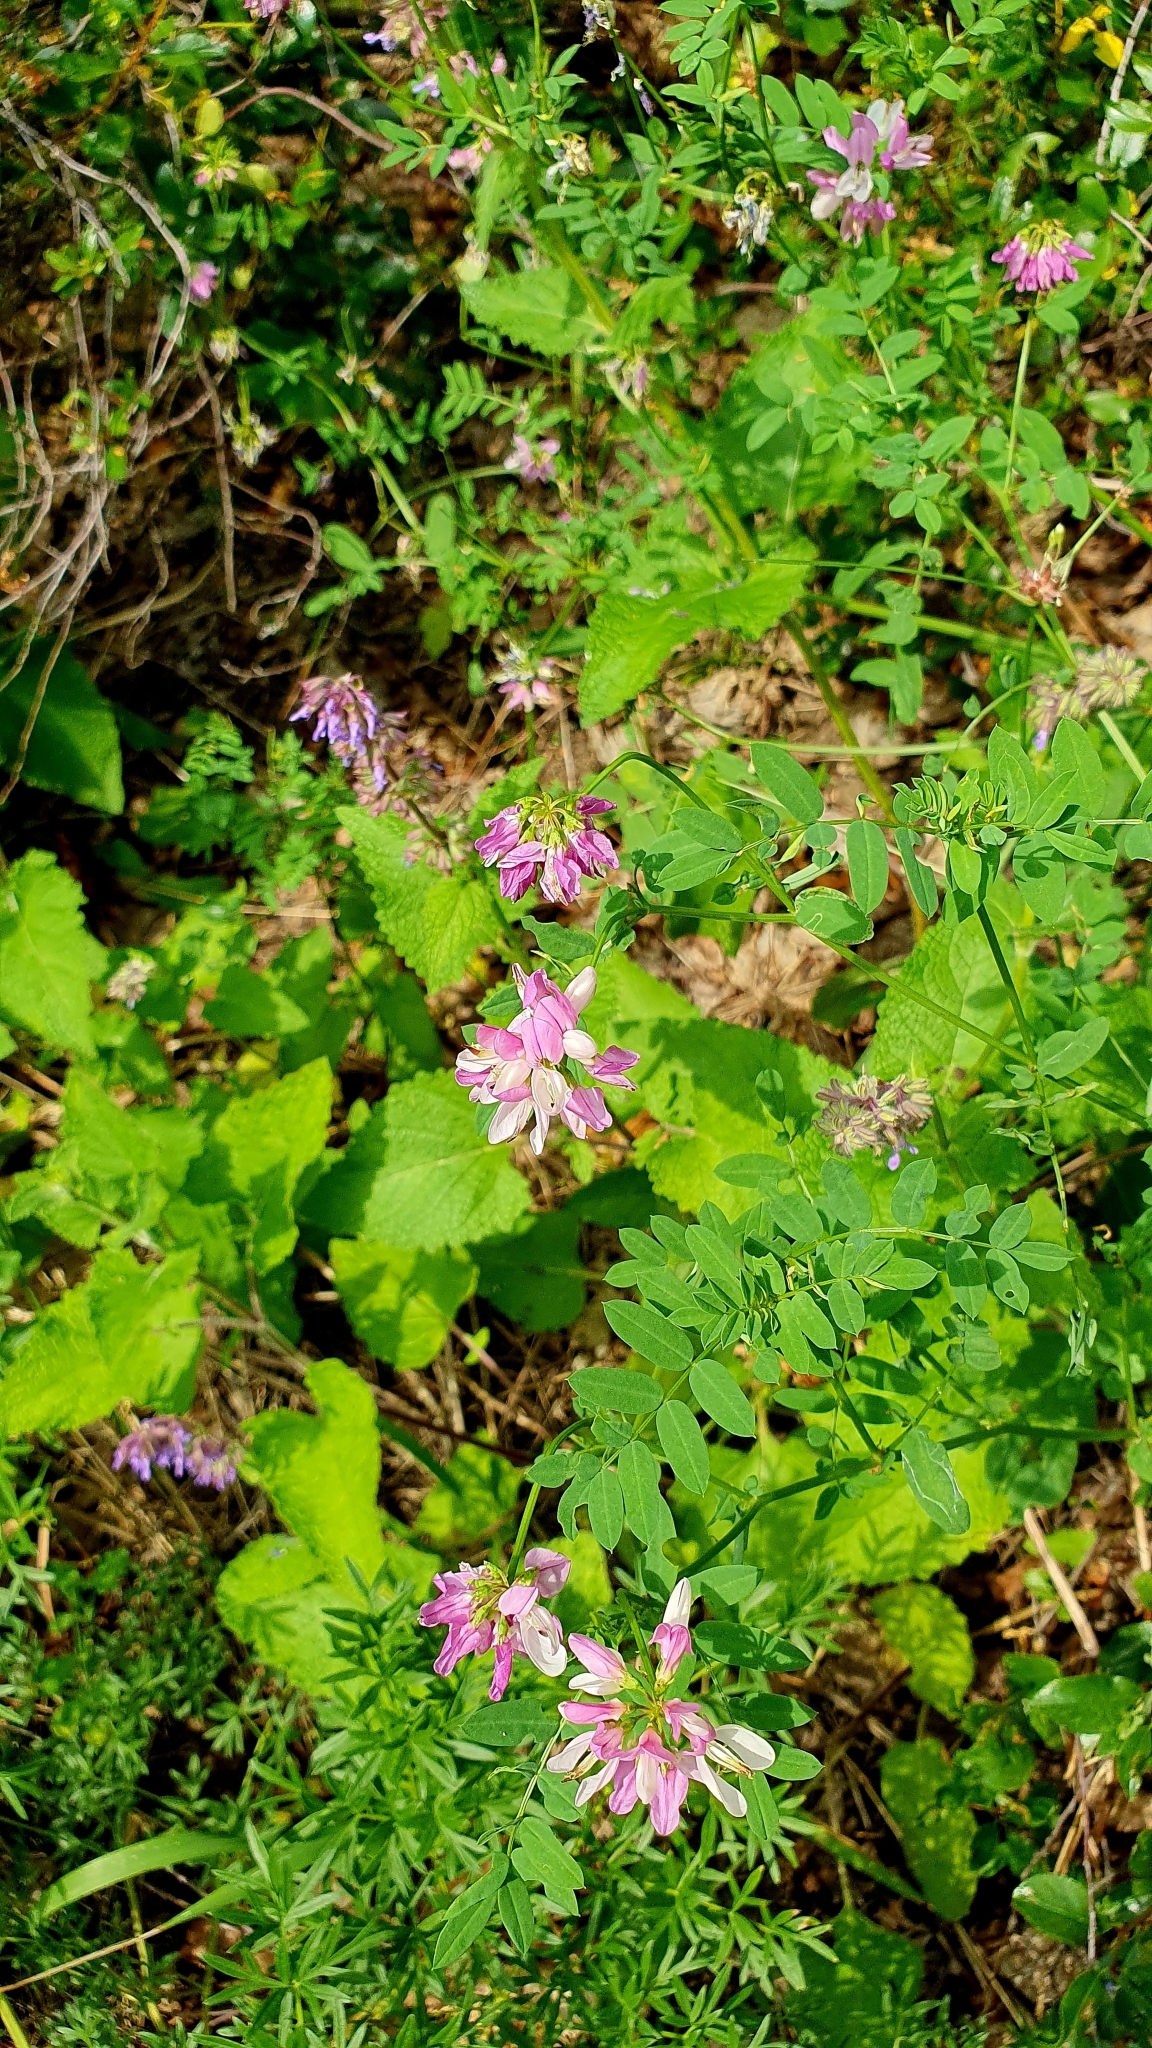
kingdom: Plantae
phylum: Tracheophyta
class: Magnoliopsida
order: Fabales
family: Fabaceae
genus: Coronilla
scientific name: Coronilla varia
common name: Crownvetch
